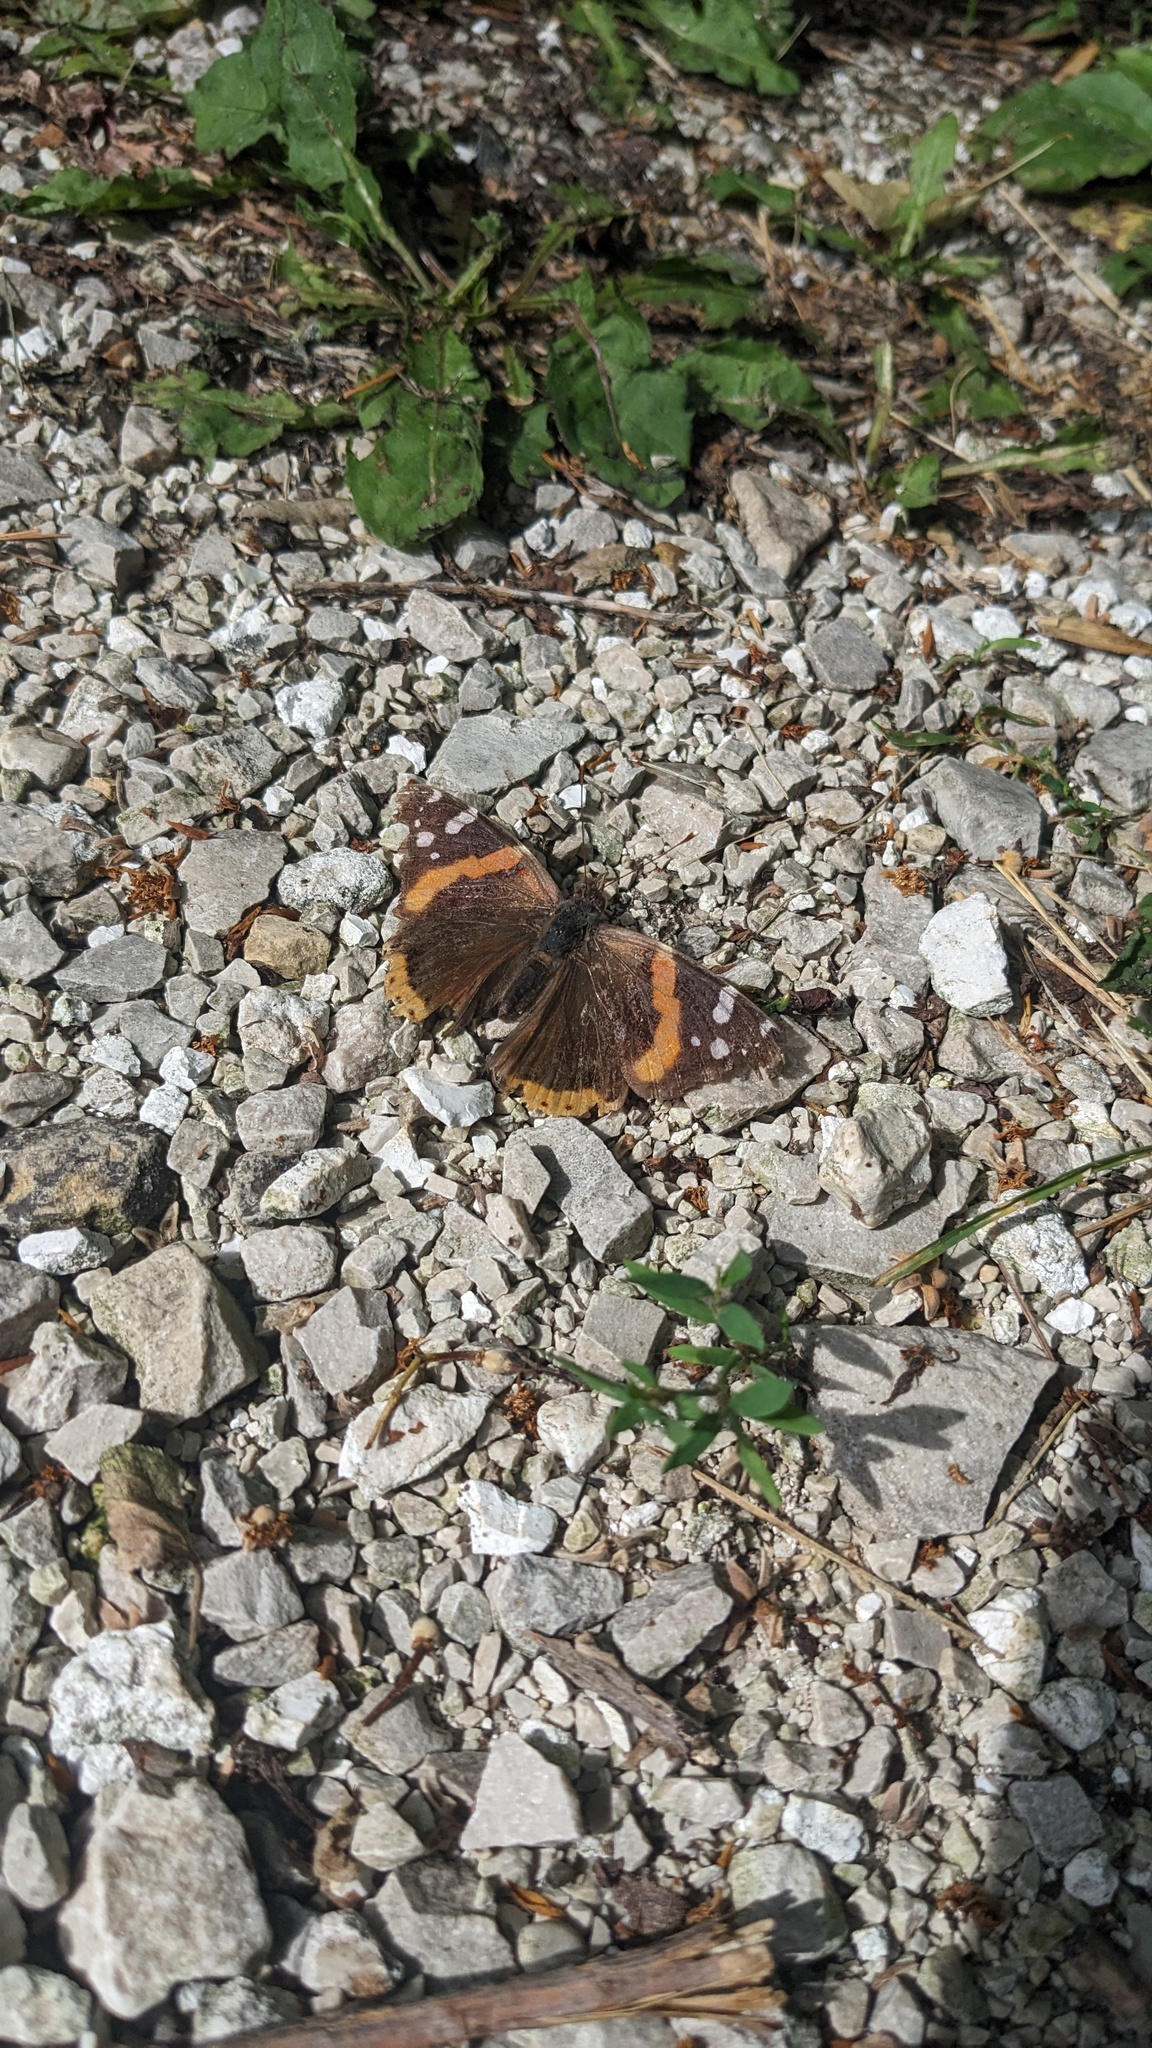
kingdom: Animalia
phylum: Arthropoda
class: Insecta
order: Lepidoptera
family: Nymphalidae
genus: Vanessa
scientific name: Vanessa atalanta
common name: Red admiral
